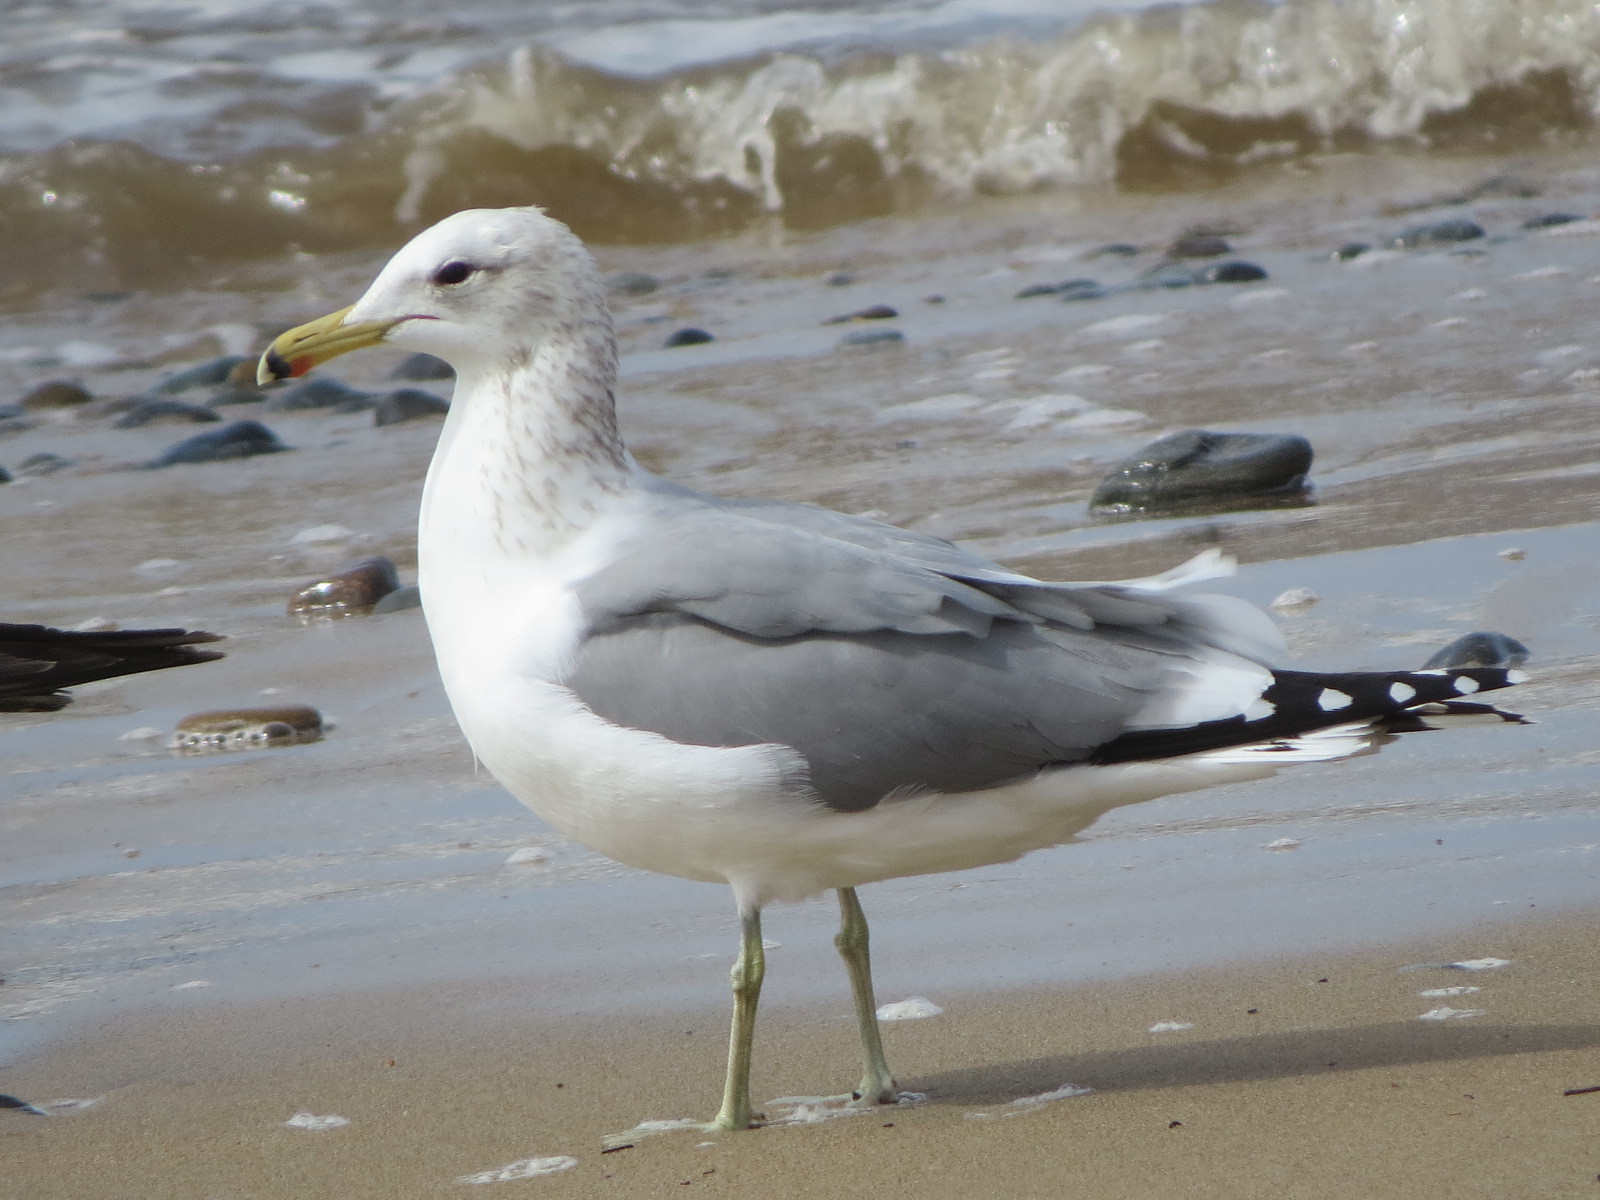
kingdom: Animalia
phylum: Chordata
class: Aves
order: Charadriiformes
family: Laridae
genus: Larus
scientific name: Larus californicus
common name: California gull
